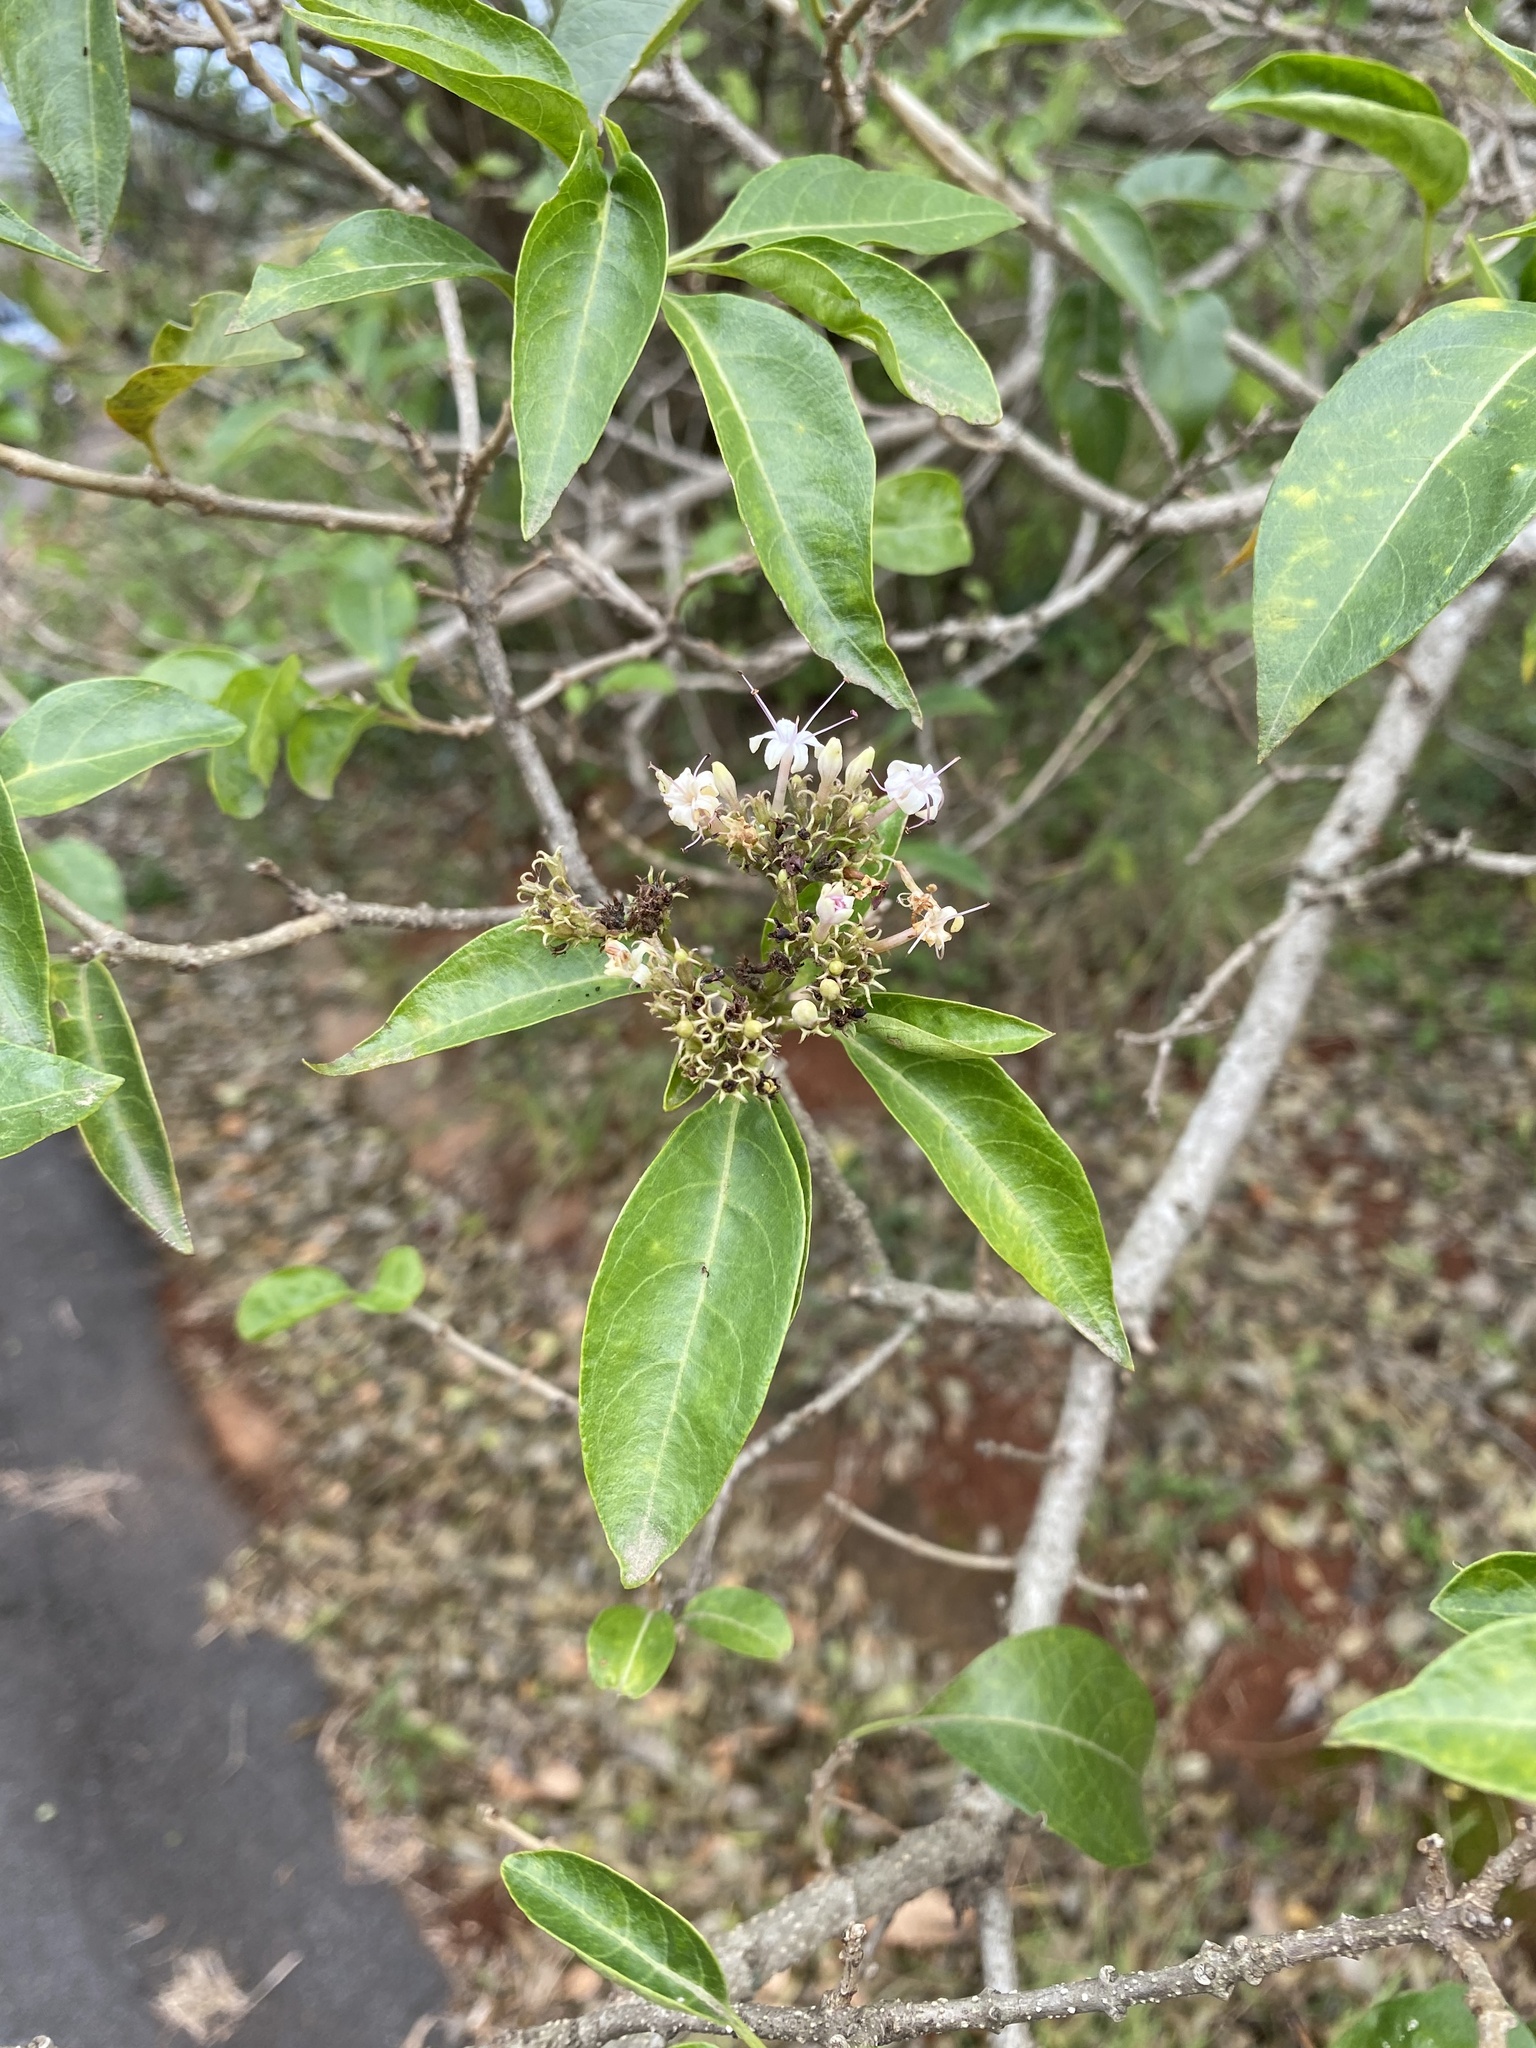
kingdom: Plantae
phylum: Tracheophyta
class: Magnoliopsida
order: Lamiales
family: Lamiaceae
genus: Volkameria
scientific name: Volkameria glabra
